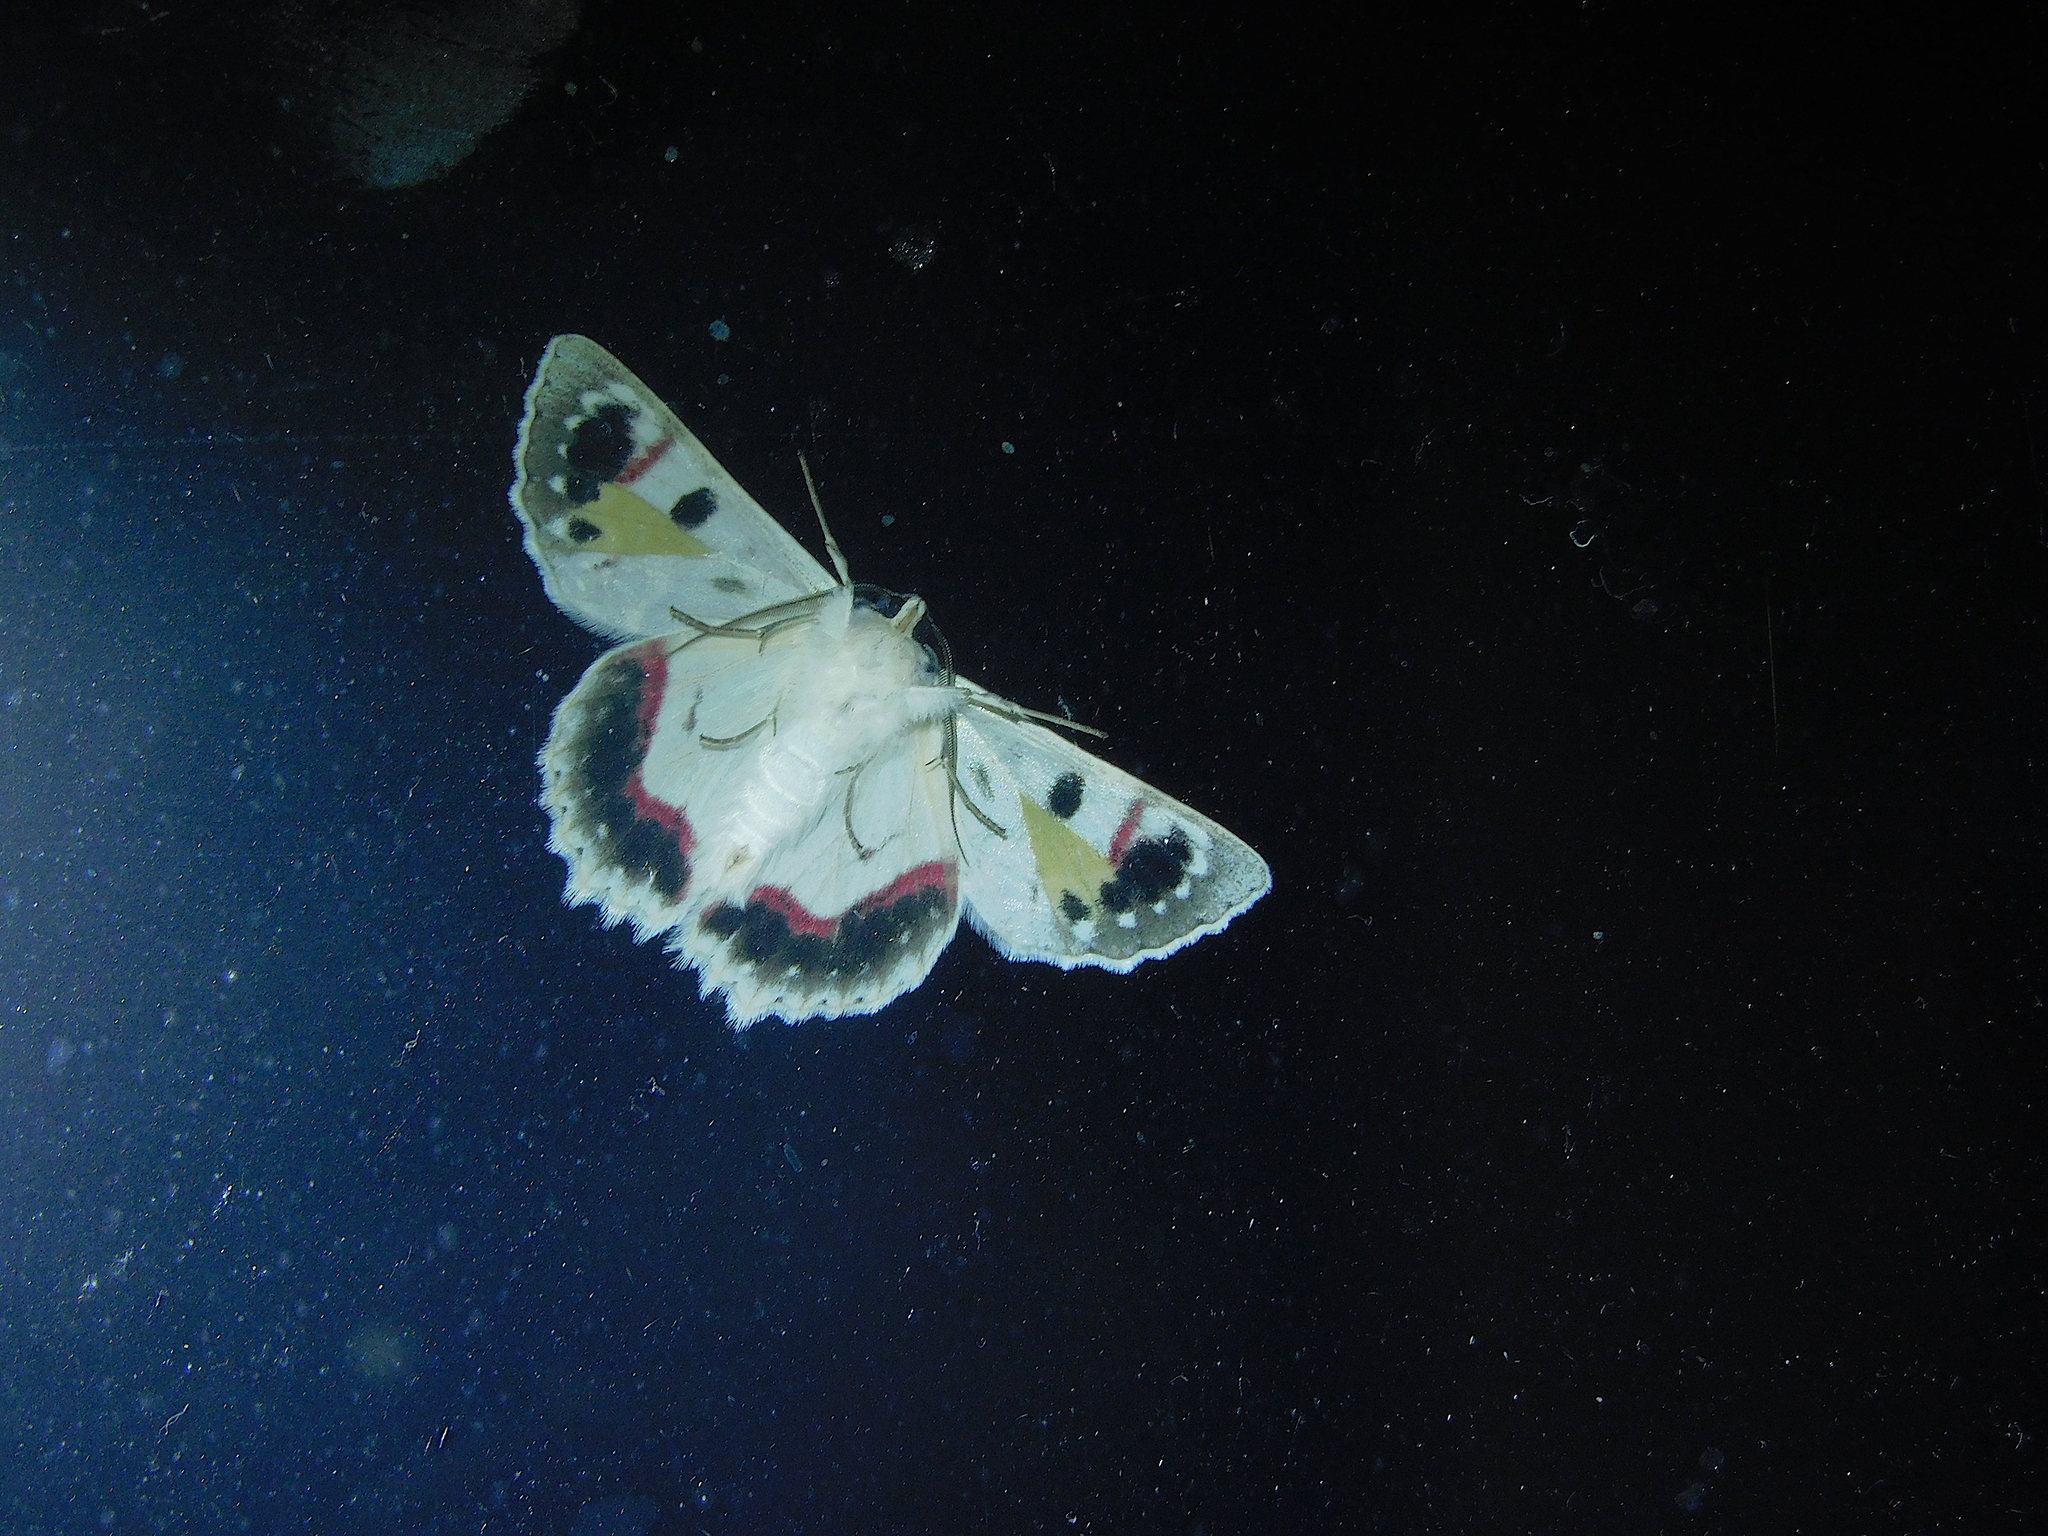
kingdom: Animalia
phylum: Arthropoda
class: Insecta
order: Lepidoptera
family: Geometridae
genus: Crypsiphona
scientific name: Crypsiphona
